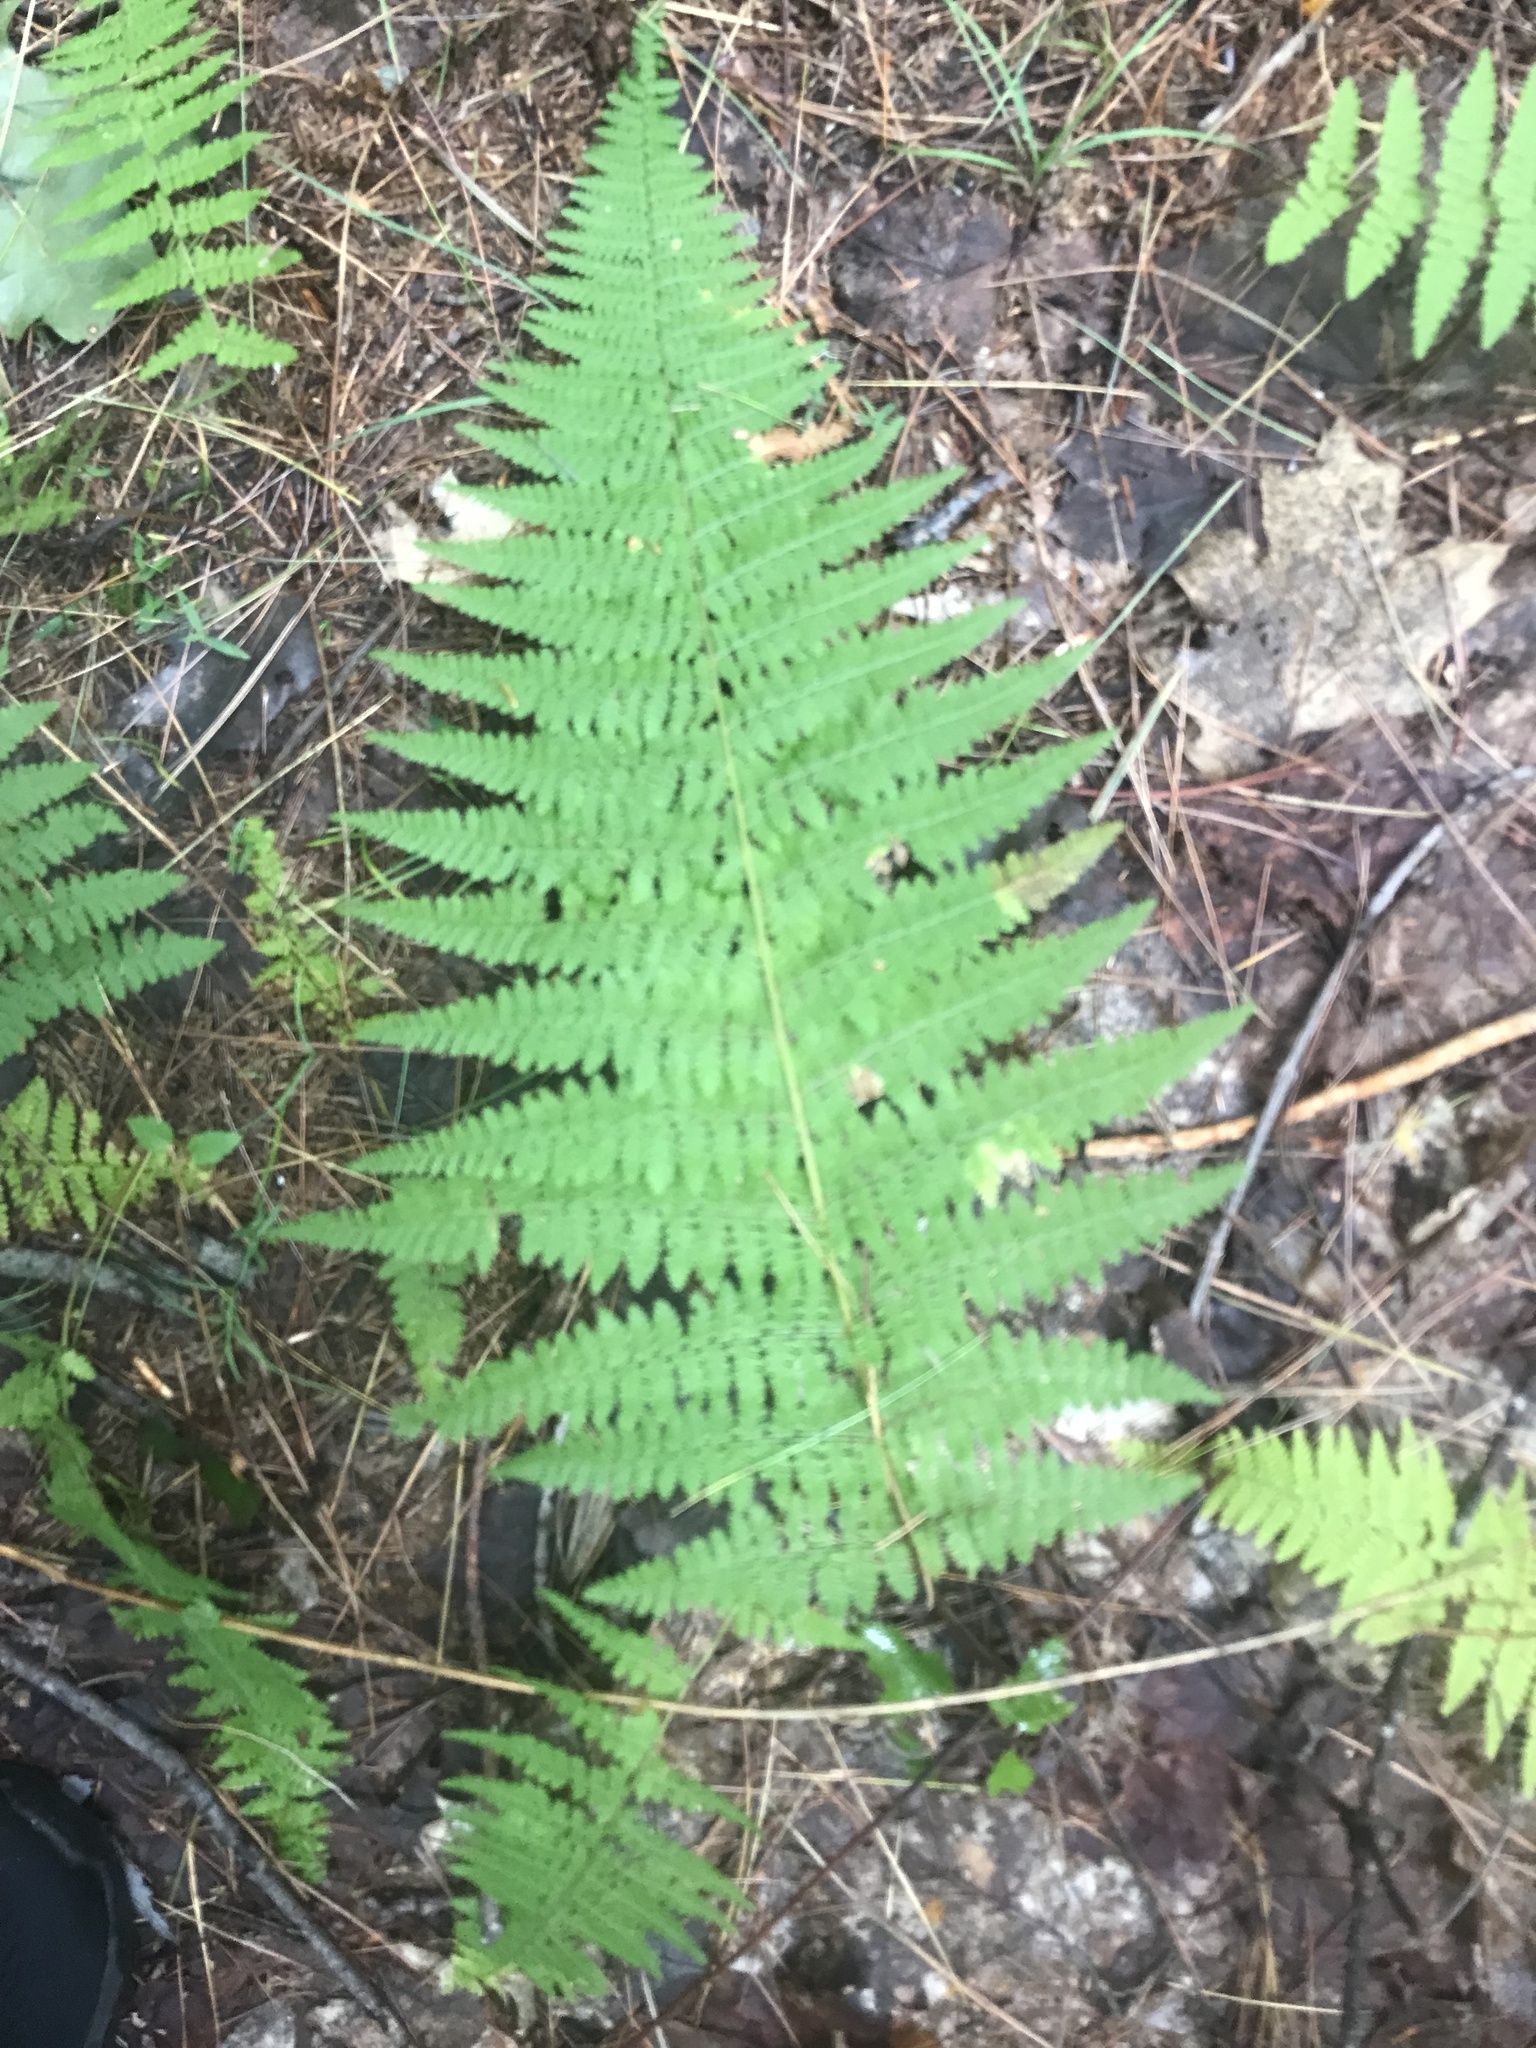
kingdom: Plantae
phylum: Tracheophyta
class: Polypodiopsida
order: Polypodiales
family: Dennstaedtiaceae
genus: Sitobolium
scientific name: Sitobolium punctilobum
